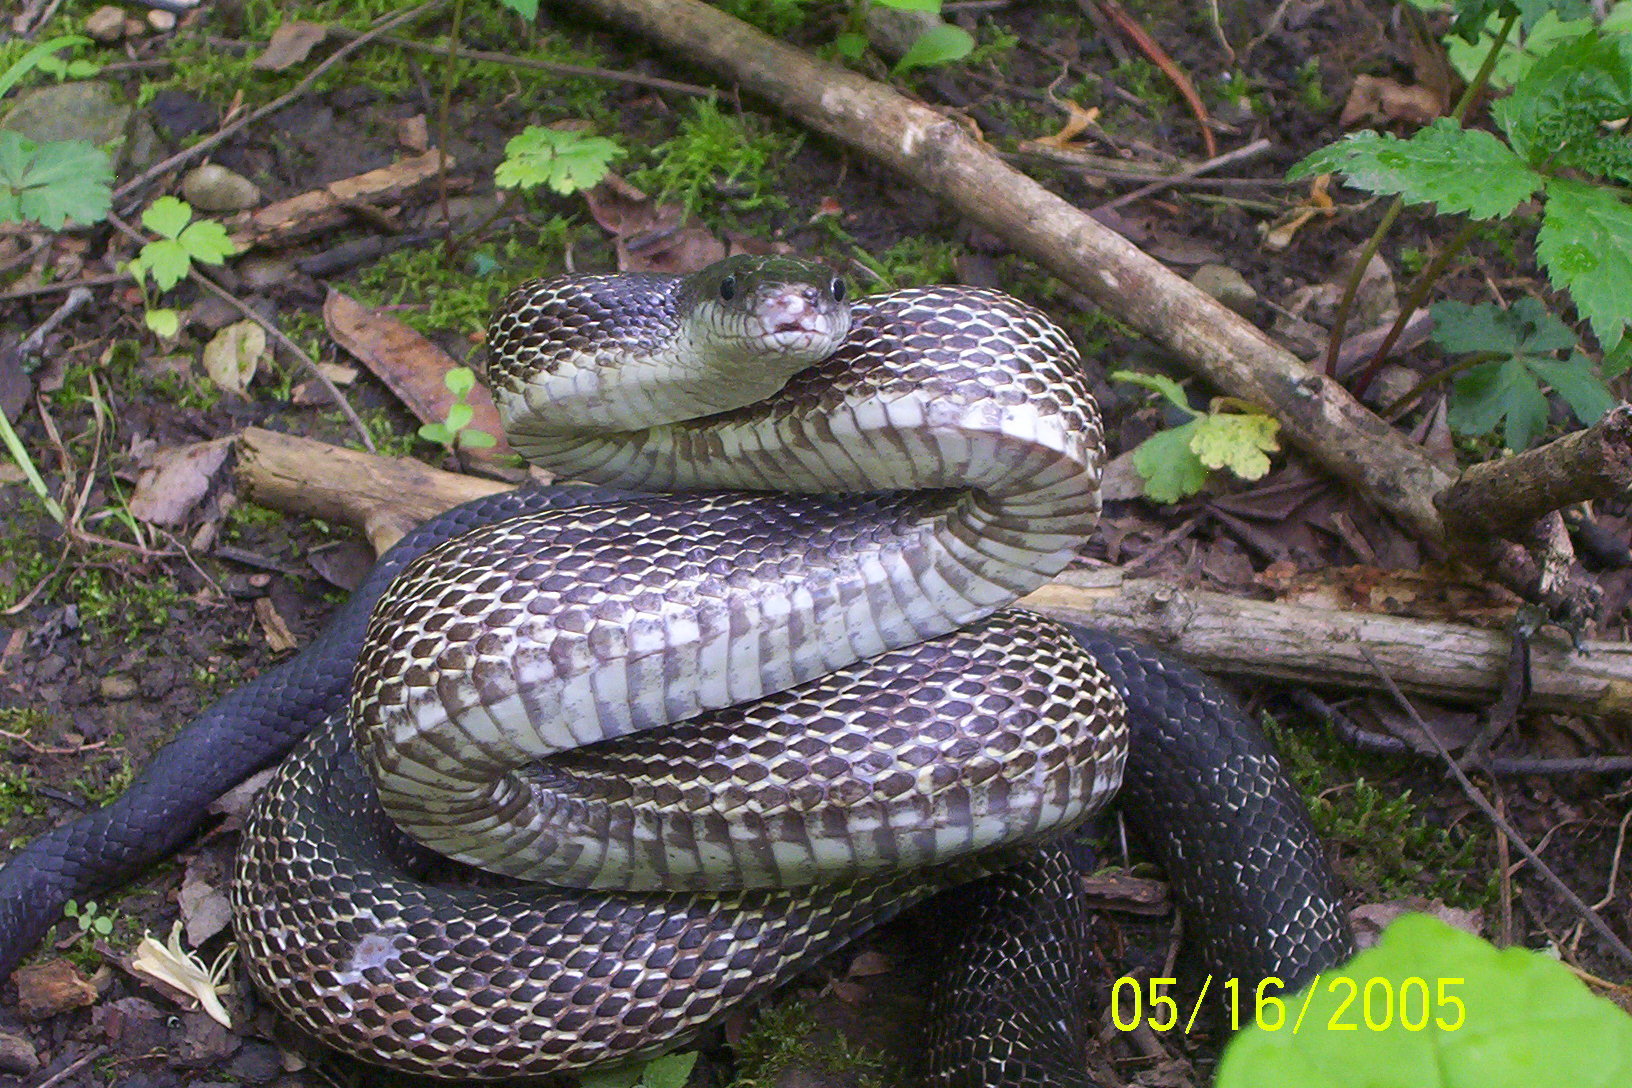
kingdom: Animalia
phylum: Chordata
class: Squamata
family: Colubridae
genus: Pantherophis
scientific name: Pantherophis spiloides
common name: Gray rat snake
